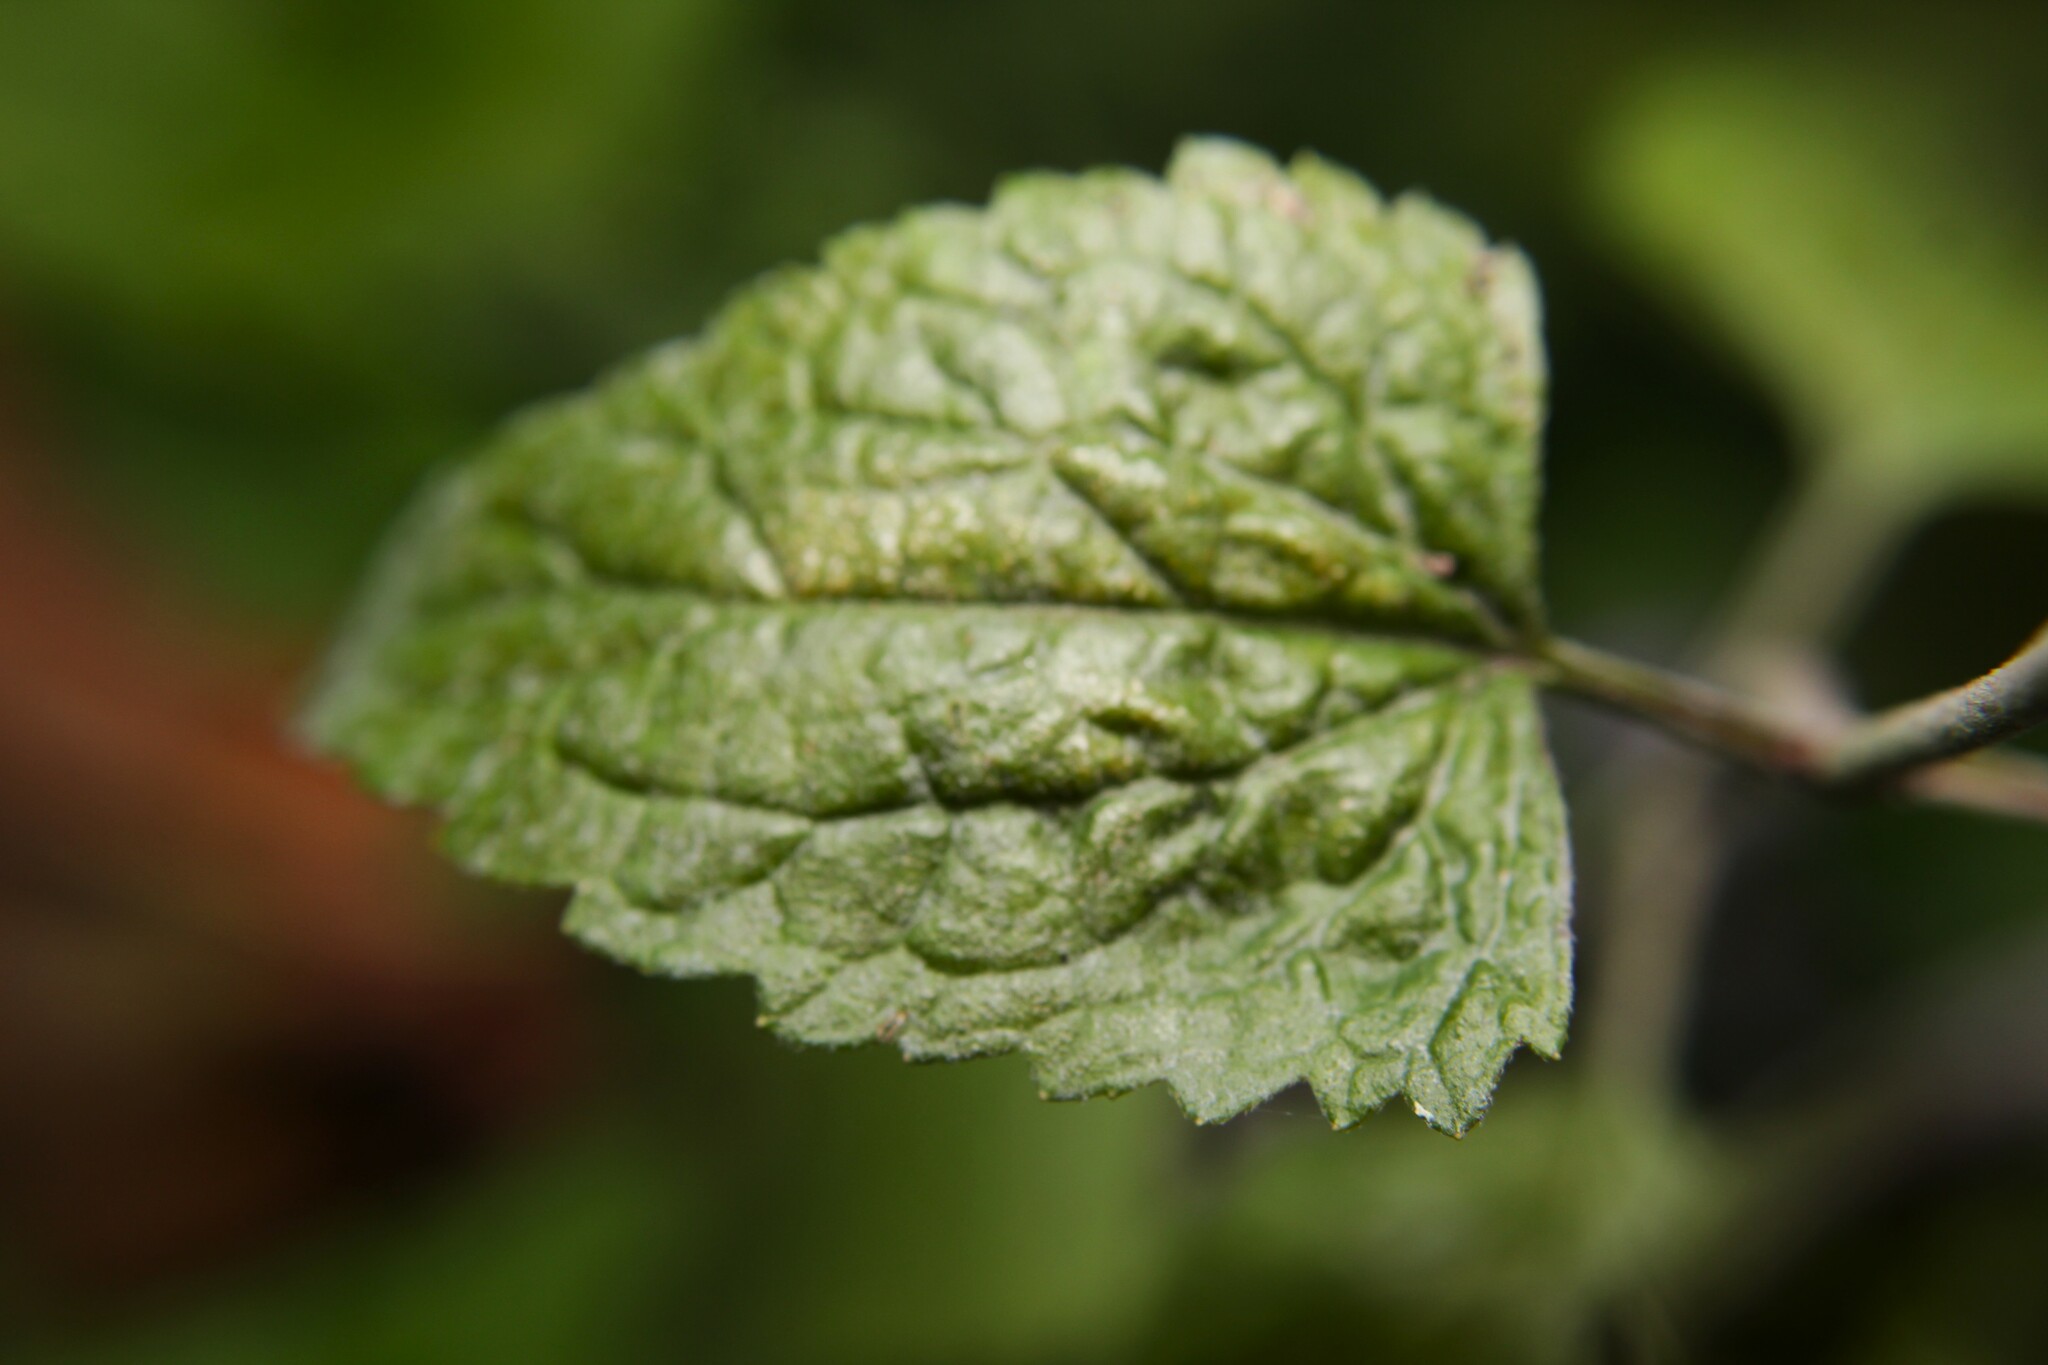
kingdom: Plantae
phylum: Tracheophyta
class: Magnoliopsida
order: Asterales
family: Asteraceae
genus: Conoclinium
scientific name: Conoclinium coelestinum
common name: Blue mistflower
